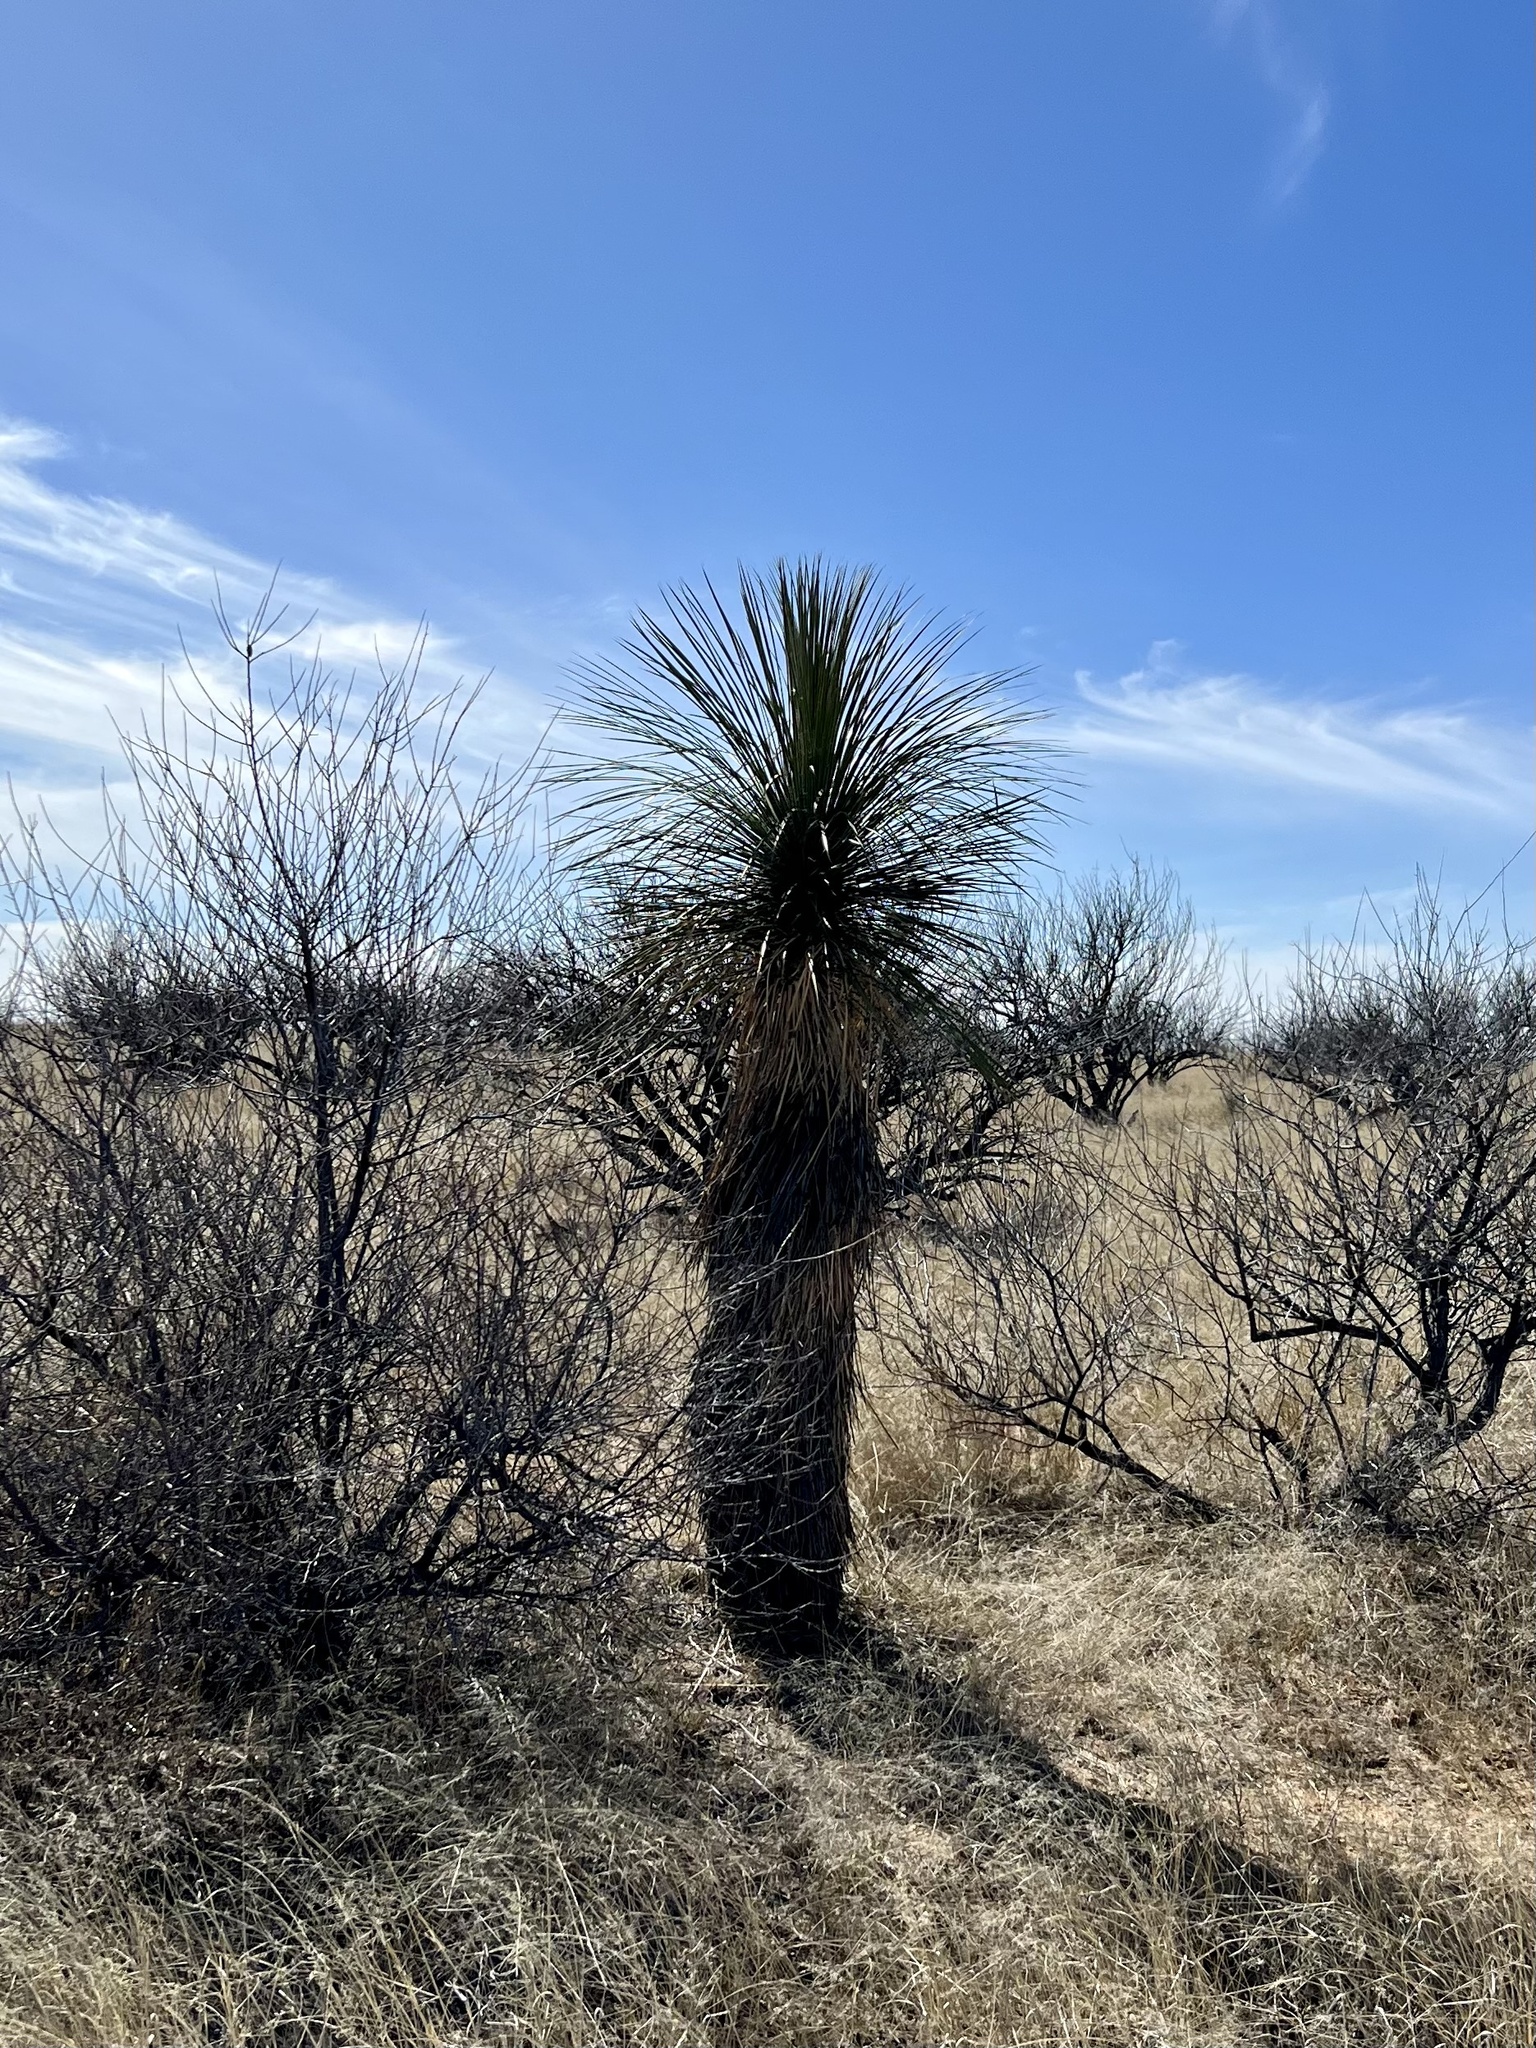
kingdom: Plantae
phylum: Tracheophyta
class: Liliopsida
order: Asparagales
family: Asparagaceae
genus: Yucca
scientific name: Yucca elata
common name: Palmella
